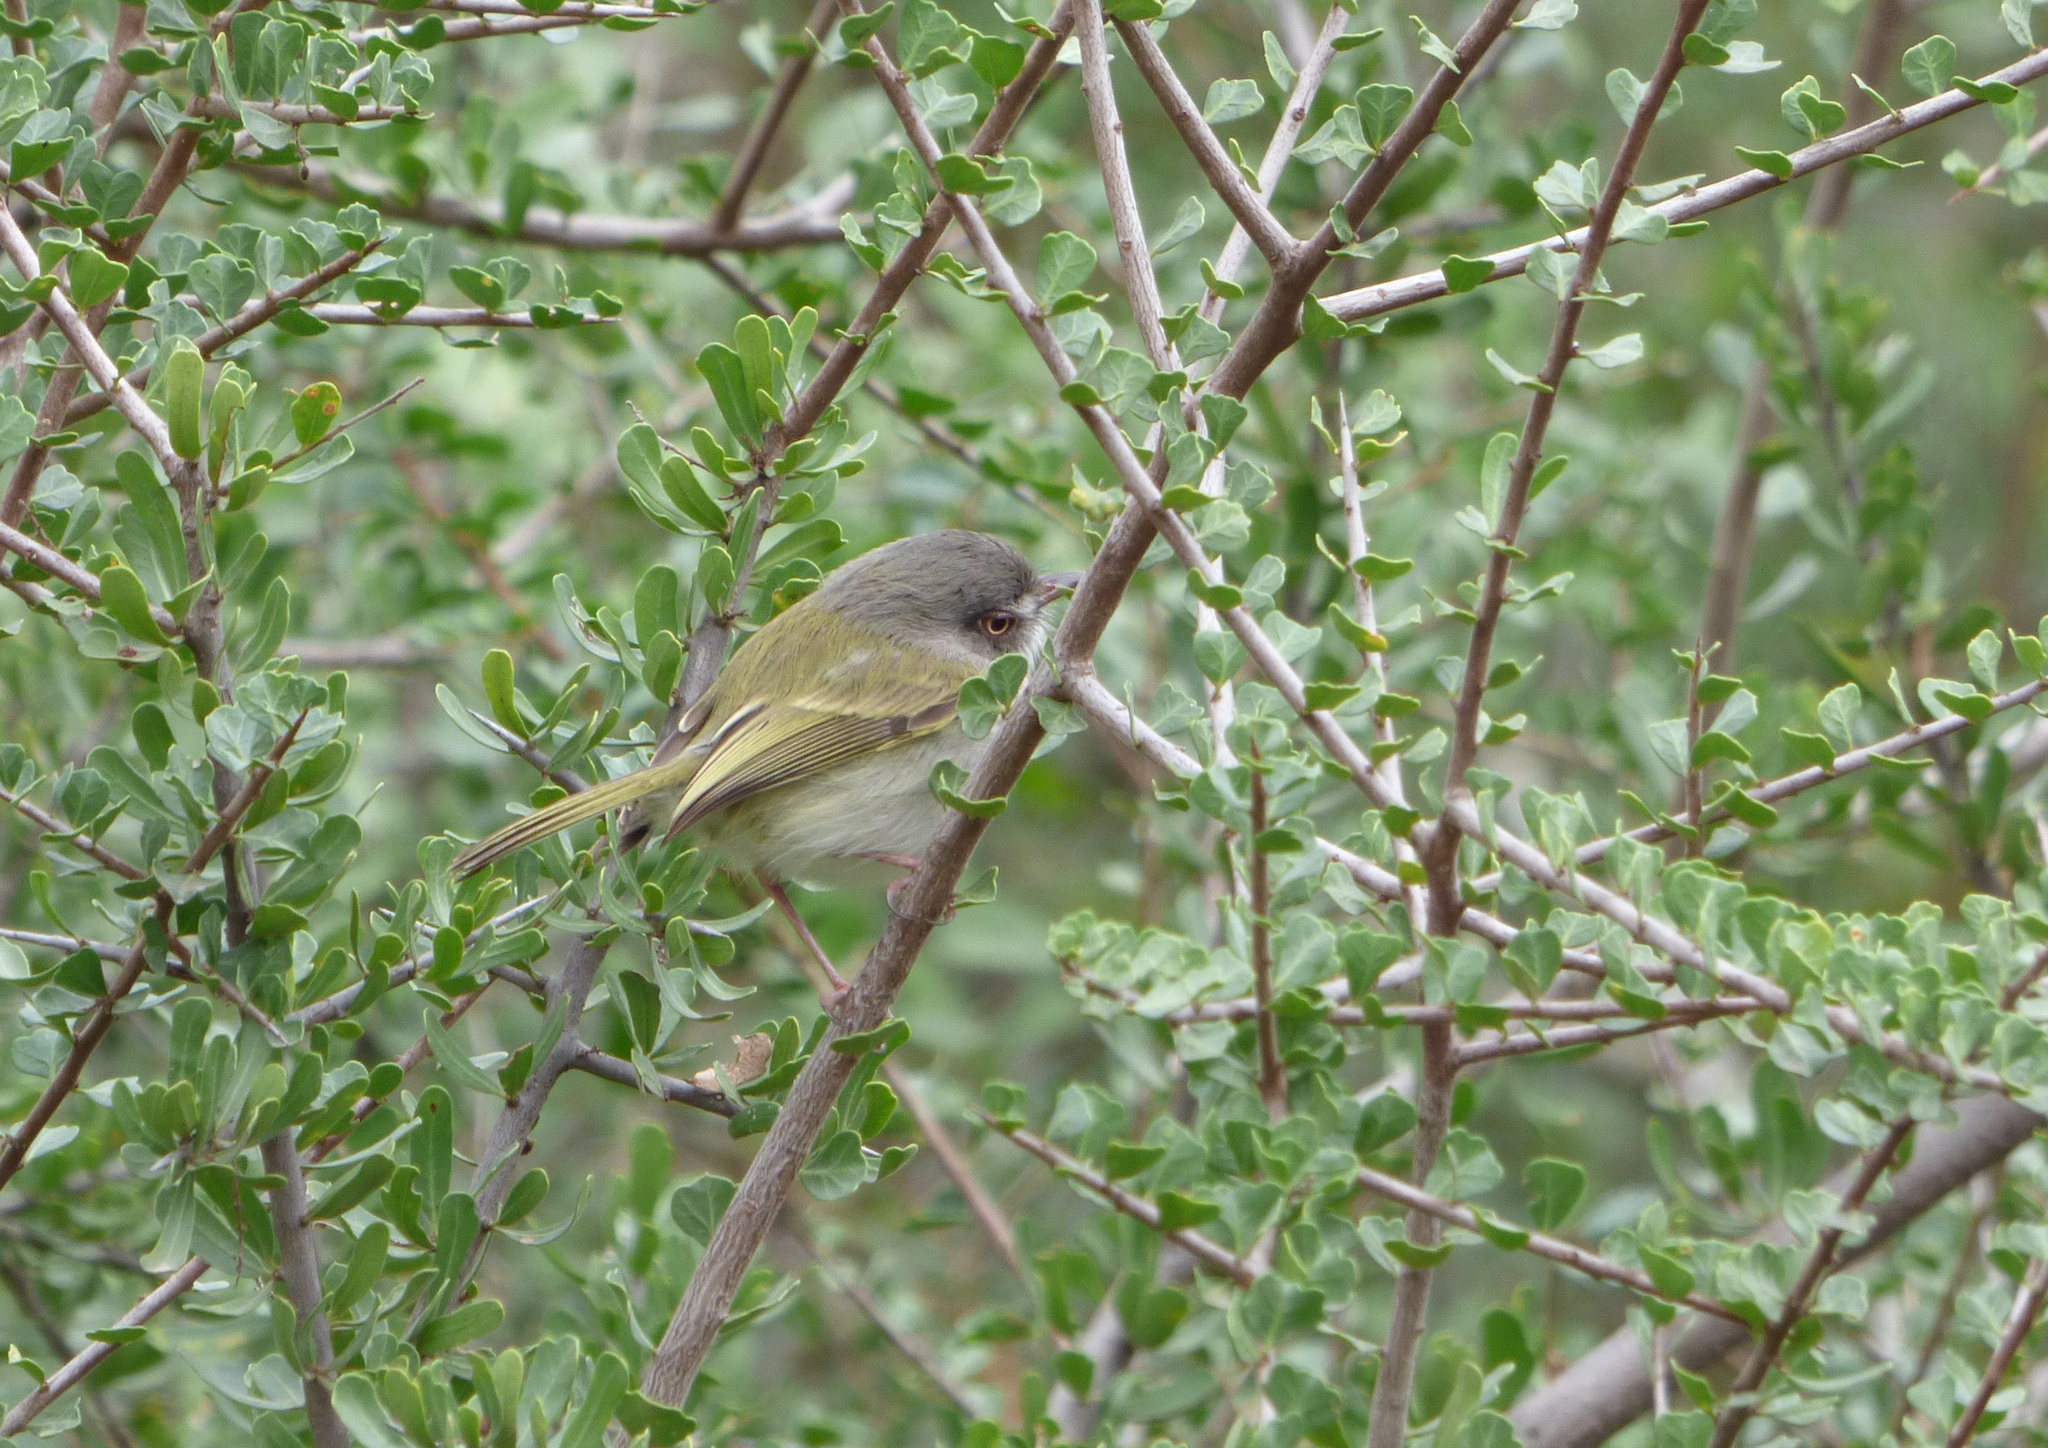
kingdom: Animalia
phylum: Chordata
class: Aves
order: Passeriformes
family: Tyrannidae
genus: Hemitriccus
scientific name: Hemitriccus margaritaceiventer
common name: Pearly-vented tody-tyrant
